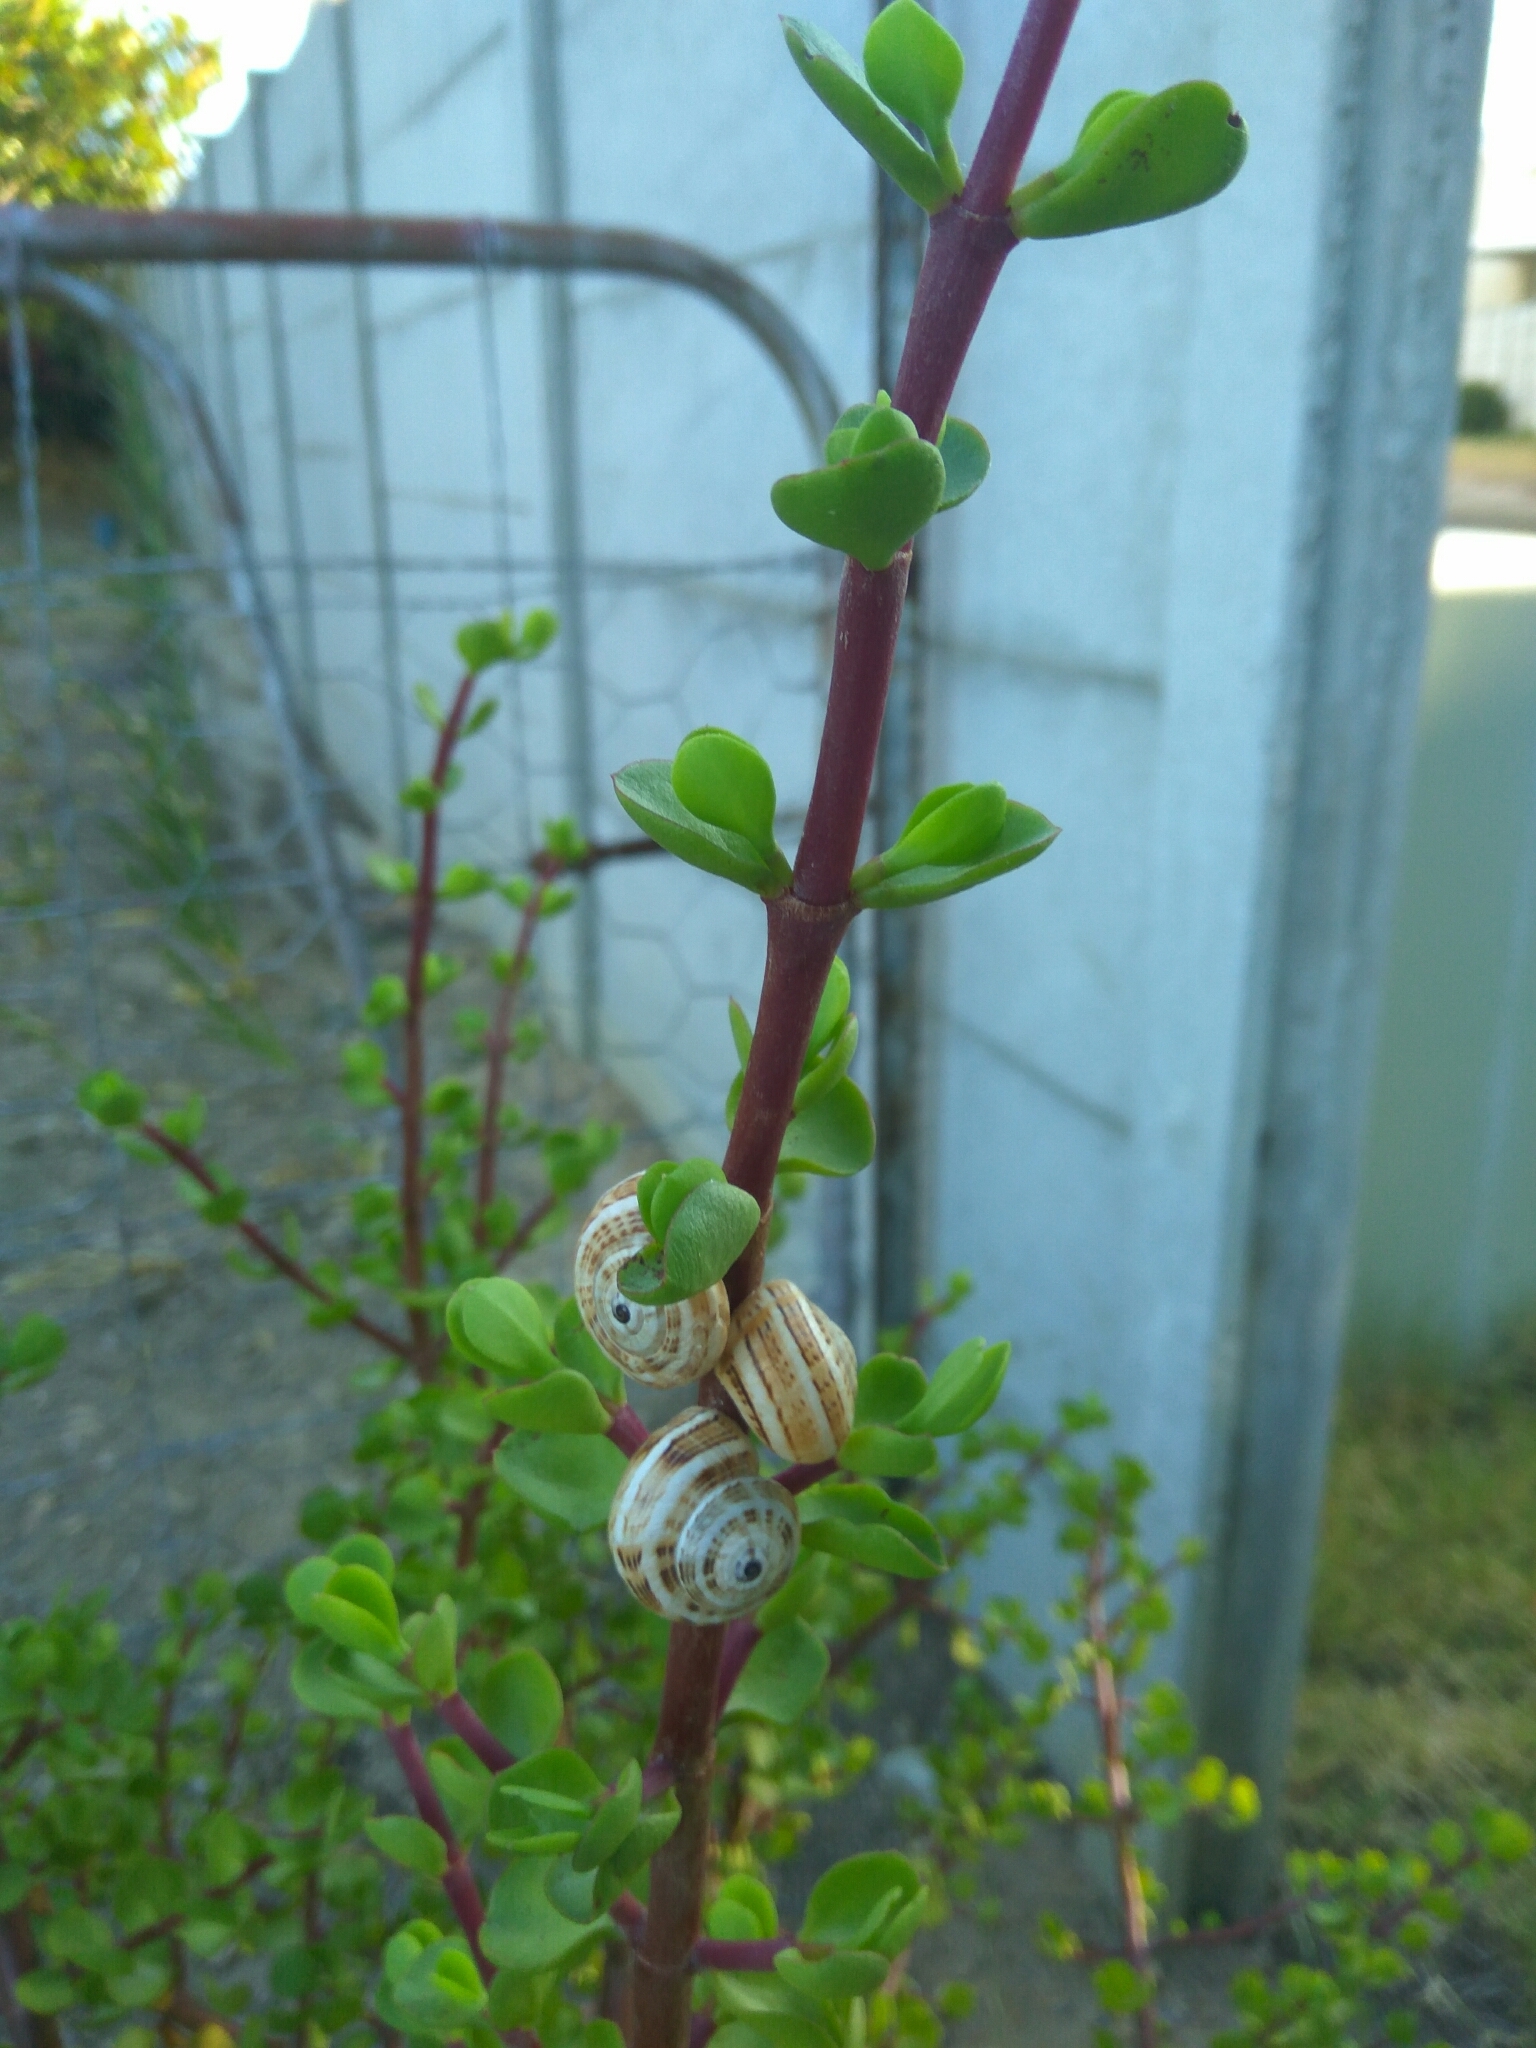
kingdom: Animalia
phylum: Mollusca
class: Gastropoda
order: Stylommatophora
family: Helicidae
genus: Theba
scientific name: Theba pisana
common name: White snail
